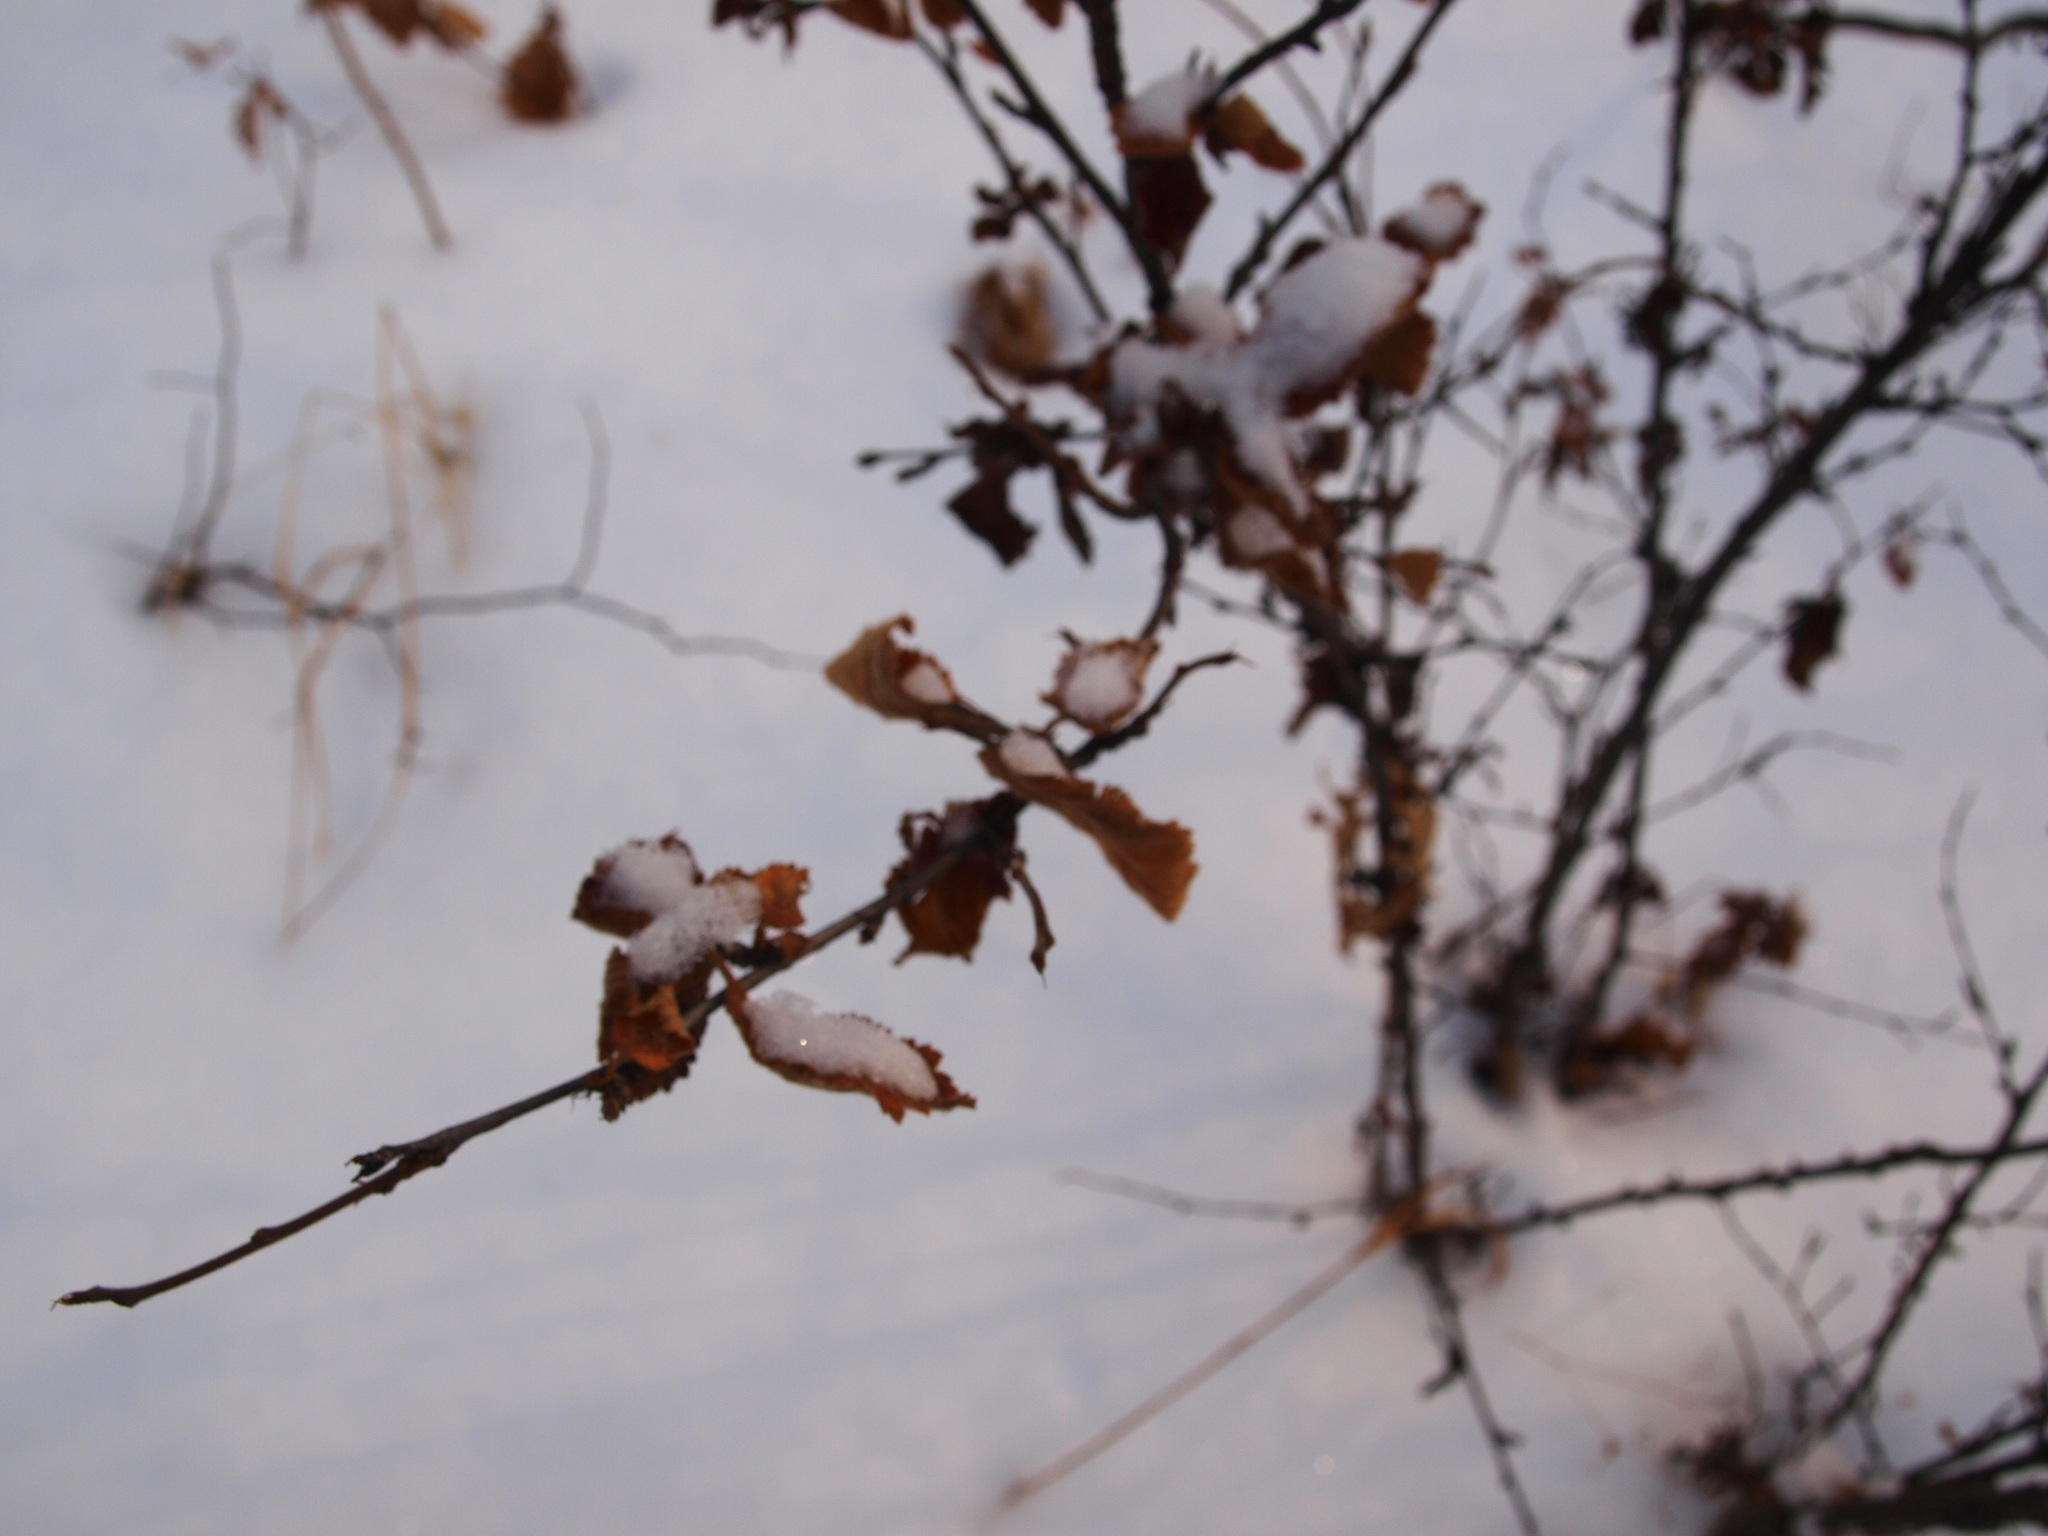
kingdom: Plantae
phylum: Tracheophyta
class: Magnoliopsida
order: Rosales
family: Rosaceae
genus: Prunus
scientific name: Prunus tomentosa
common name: Nanking cherry
